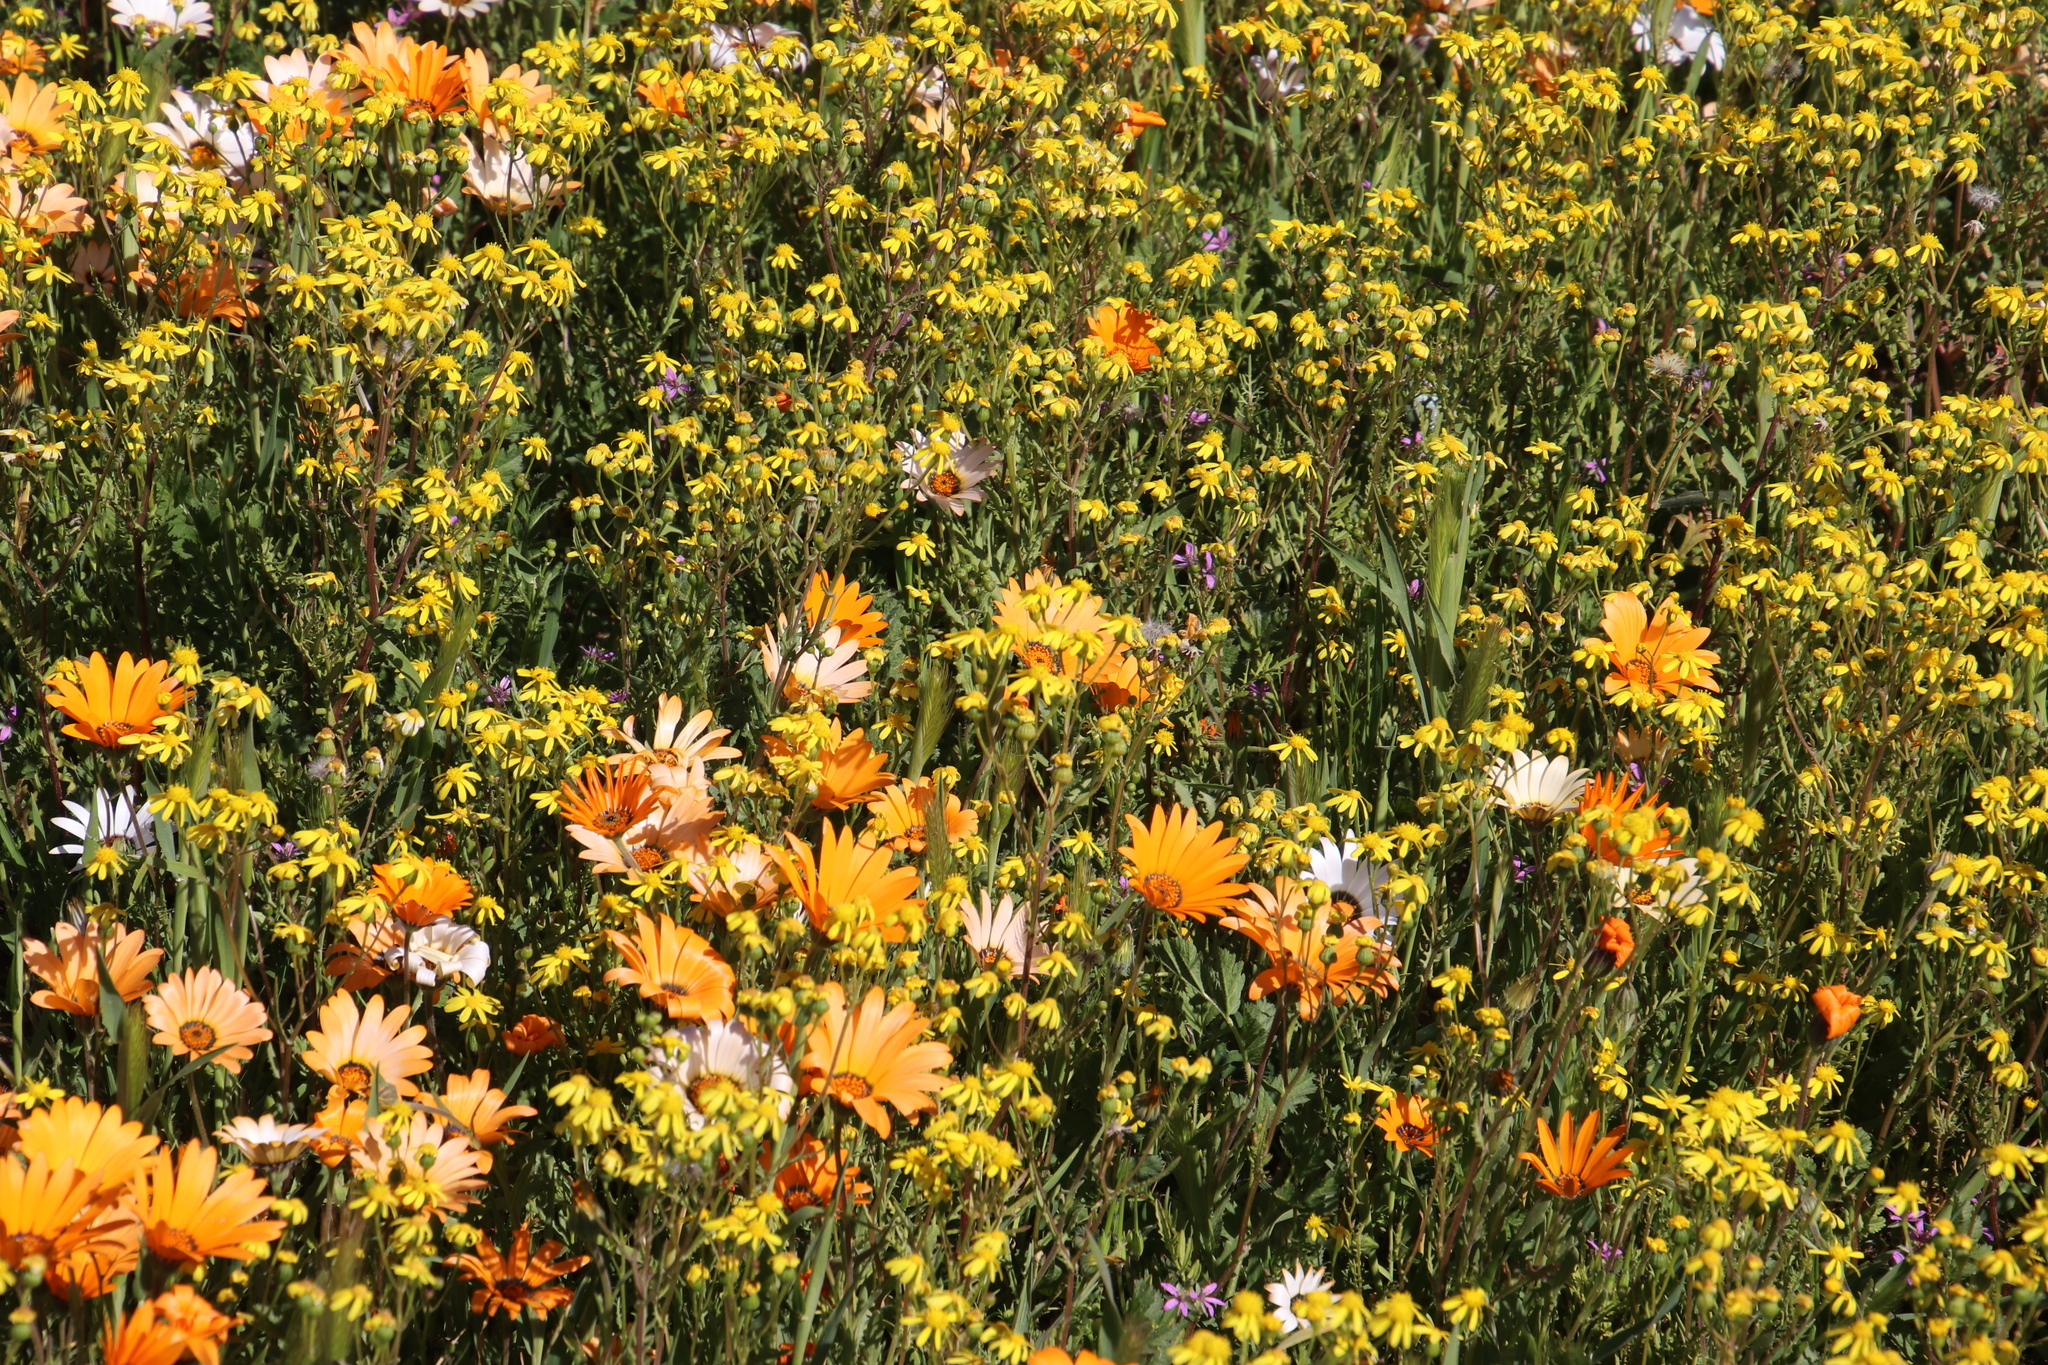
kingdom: Plantae
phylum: Tracheophyta
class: Magnoliopsida
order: Asterales
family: Asteraceae
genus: Senecio
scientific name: Senecio abruptus
